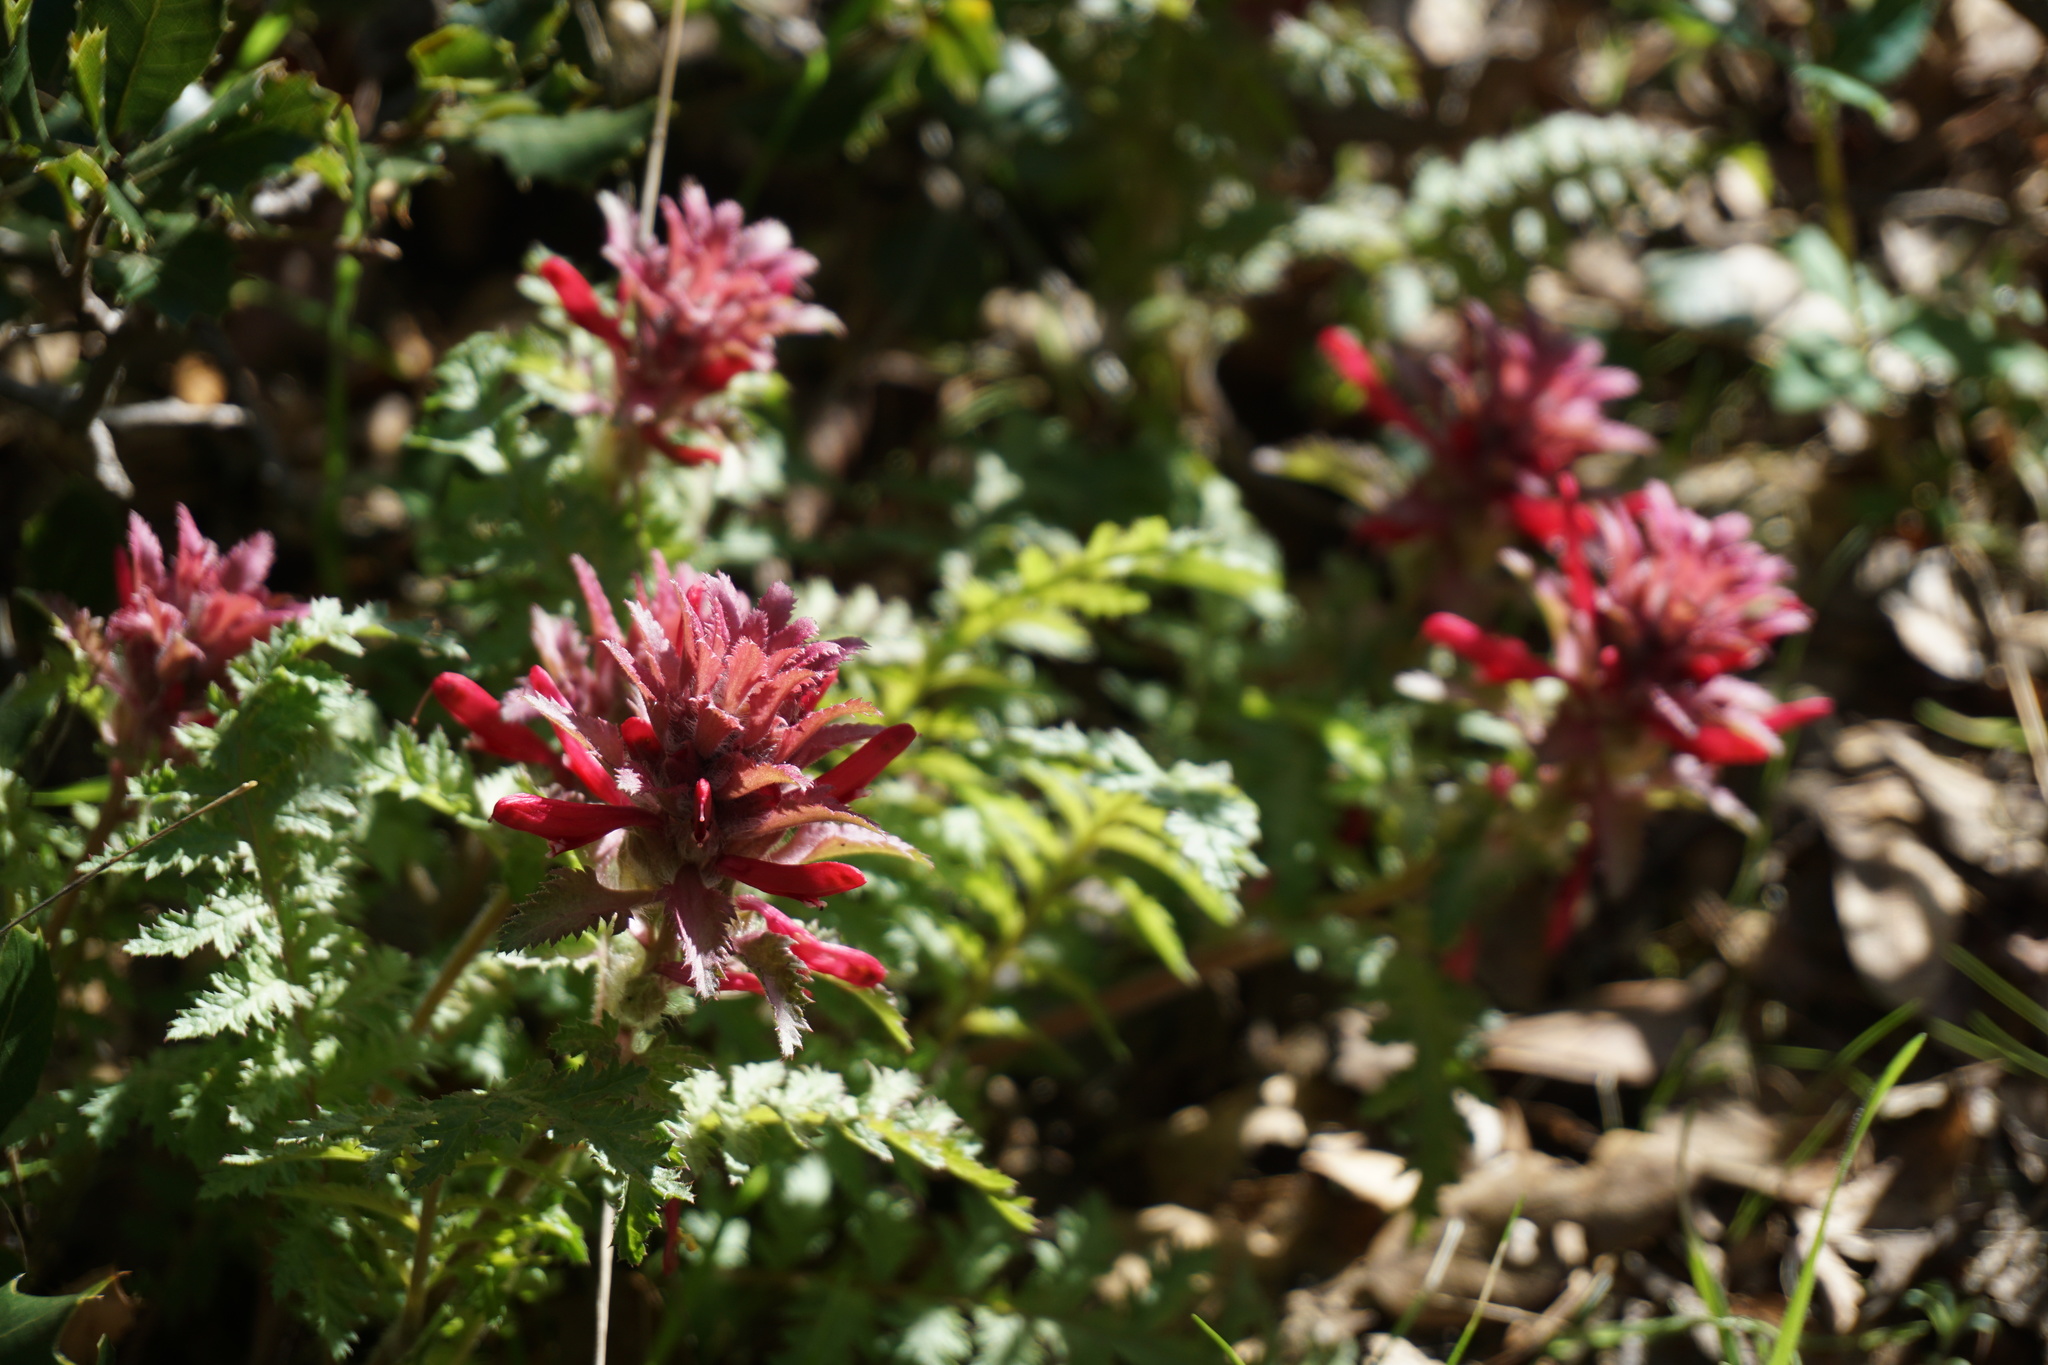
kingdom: Plantae
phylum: Tracheophyta
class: Magnoliopsida
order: Lamiales
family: Orobanchaceae
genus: Pedicularis
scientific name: Pedicularis densiflora
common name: Indian warrior
